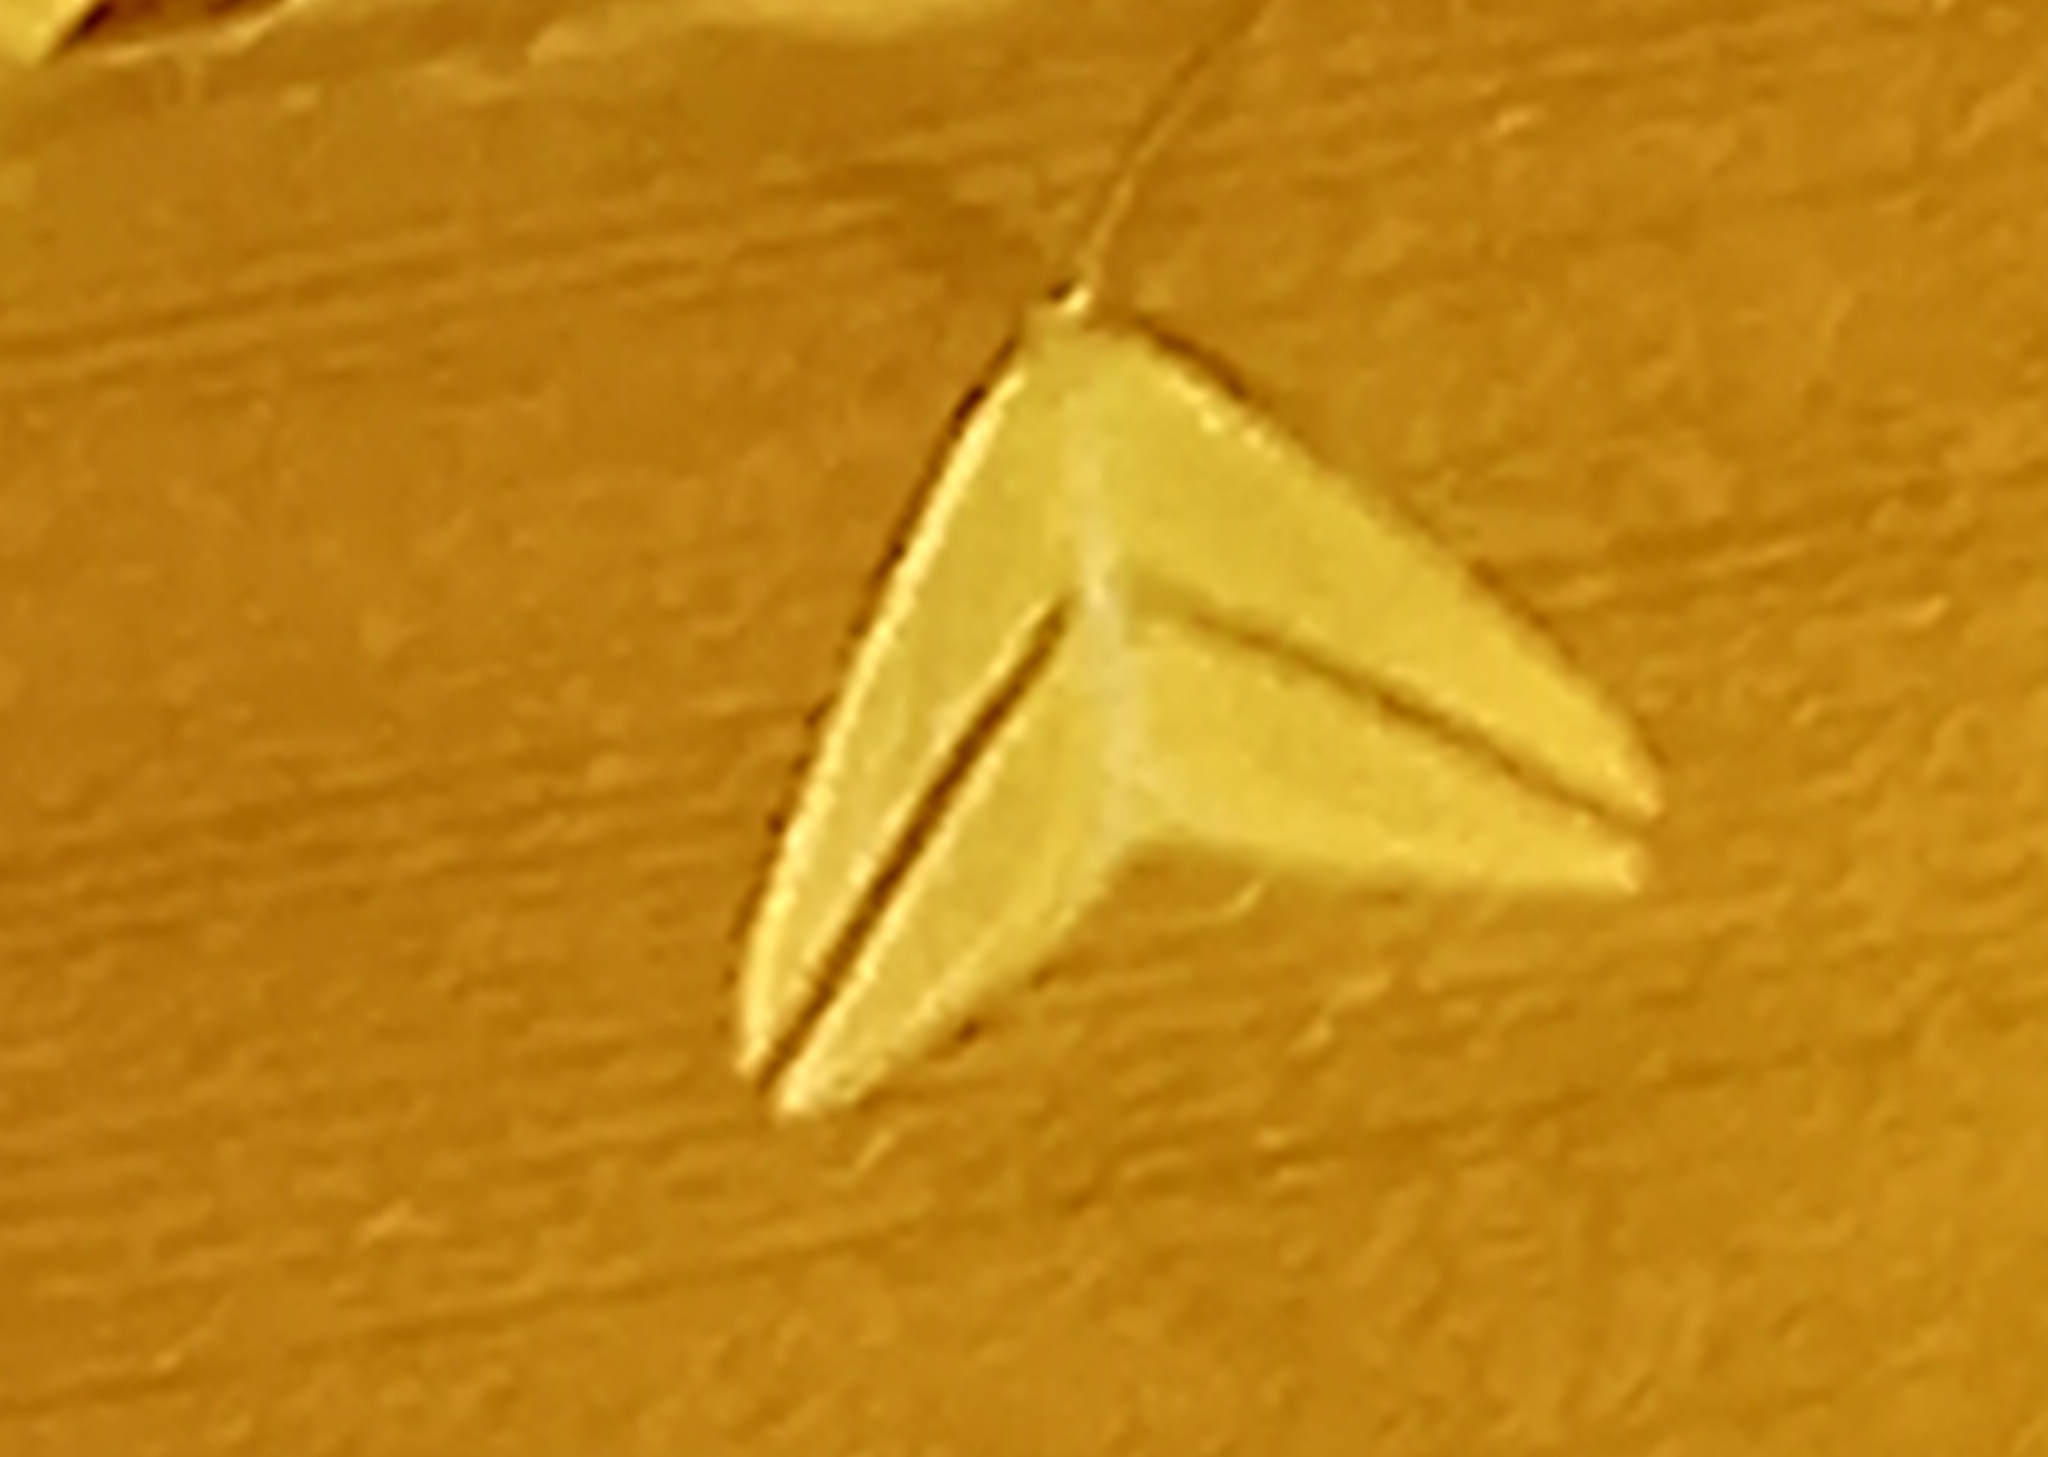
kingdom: Animalia
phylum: Arthropoda
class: Insecta
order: Lepidoptera
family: Geometridae
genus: Rhodometra
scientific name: Rhodometra sacraria
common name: Vestal
